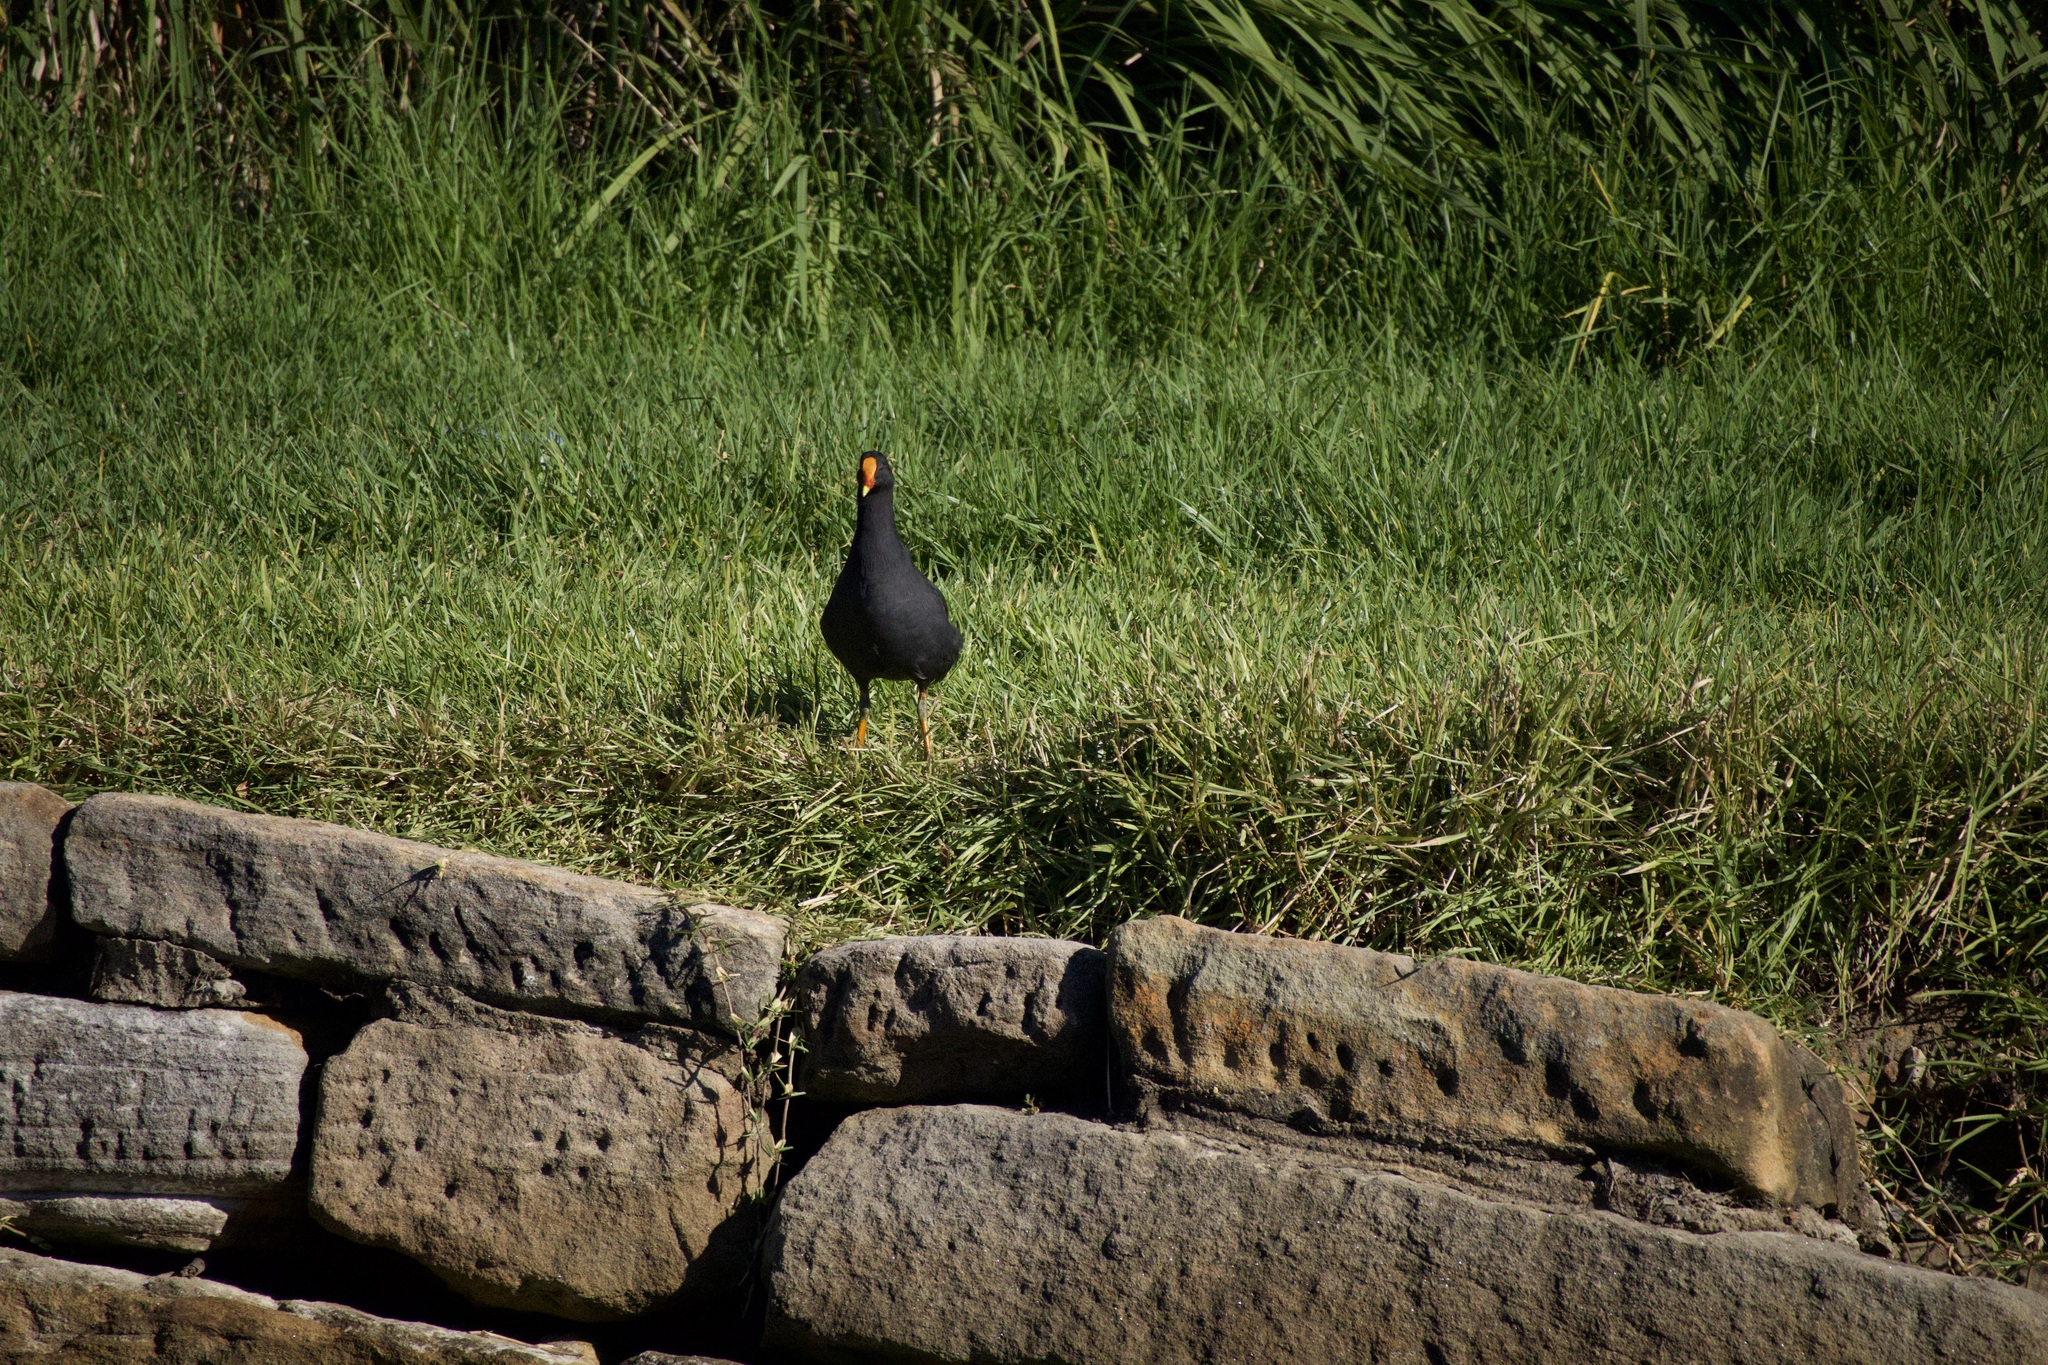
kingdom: Animalia
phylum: Chordata
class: Aves
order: Gruiformes
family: Rallidae
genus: Gallinula
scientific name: Gallinula tenebrosa
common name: Dusky moorhen
